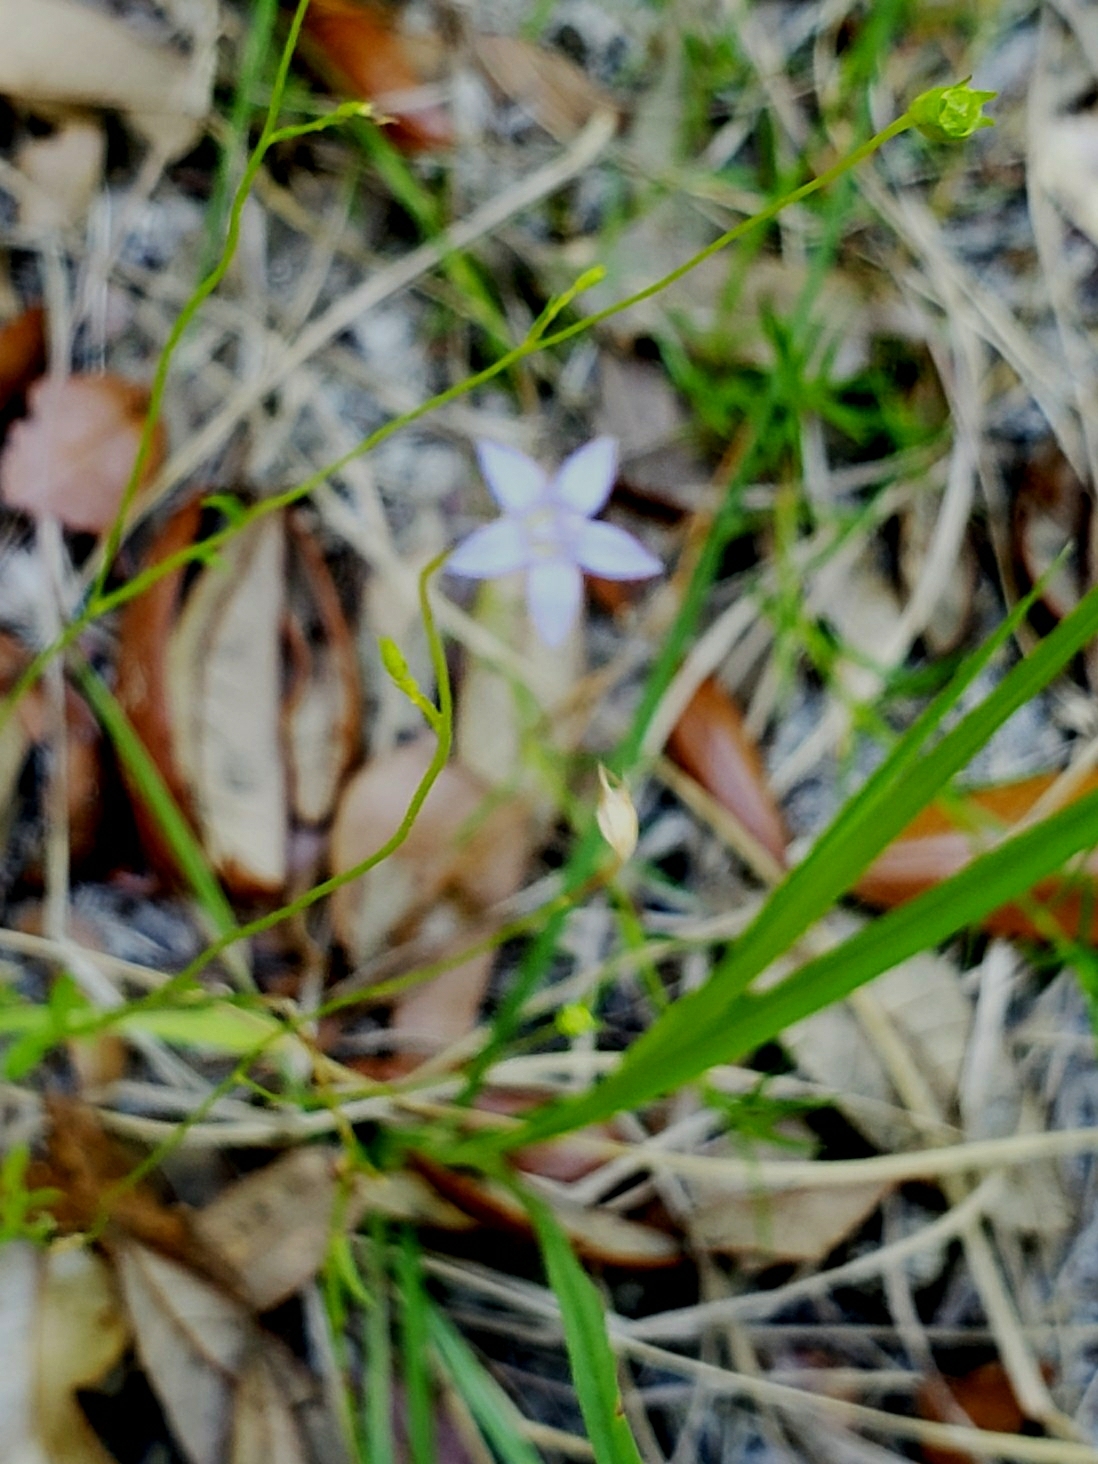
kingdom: Plantae
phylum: Tracheophyta
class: Magnoliopsida
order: Asterales
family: Campanulaceae
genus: Wahlenbergia
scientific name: Wahlenbergia marginata
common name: Southern rockbell
